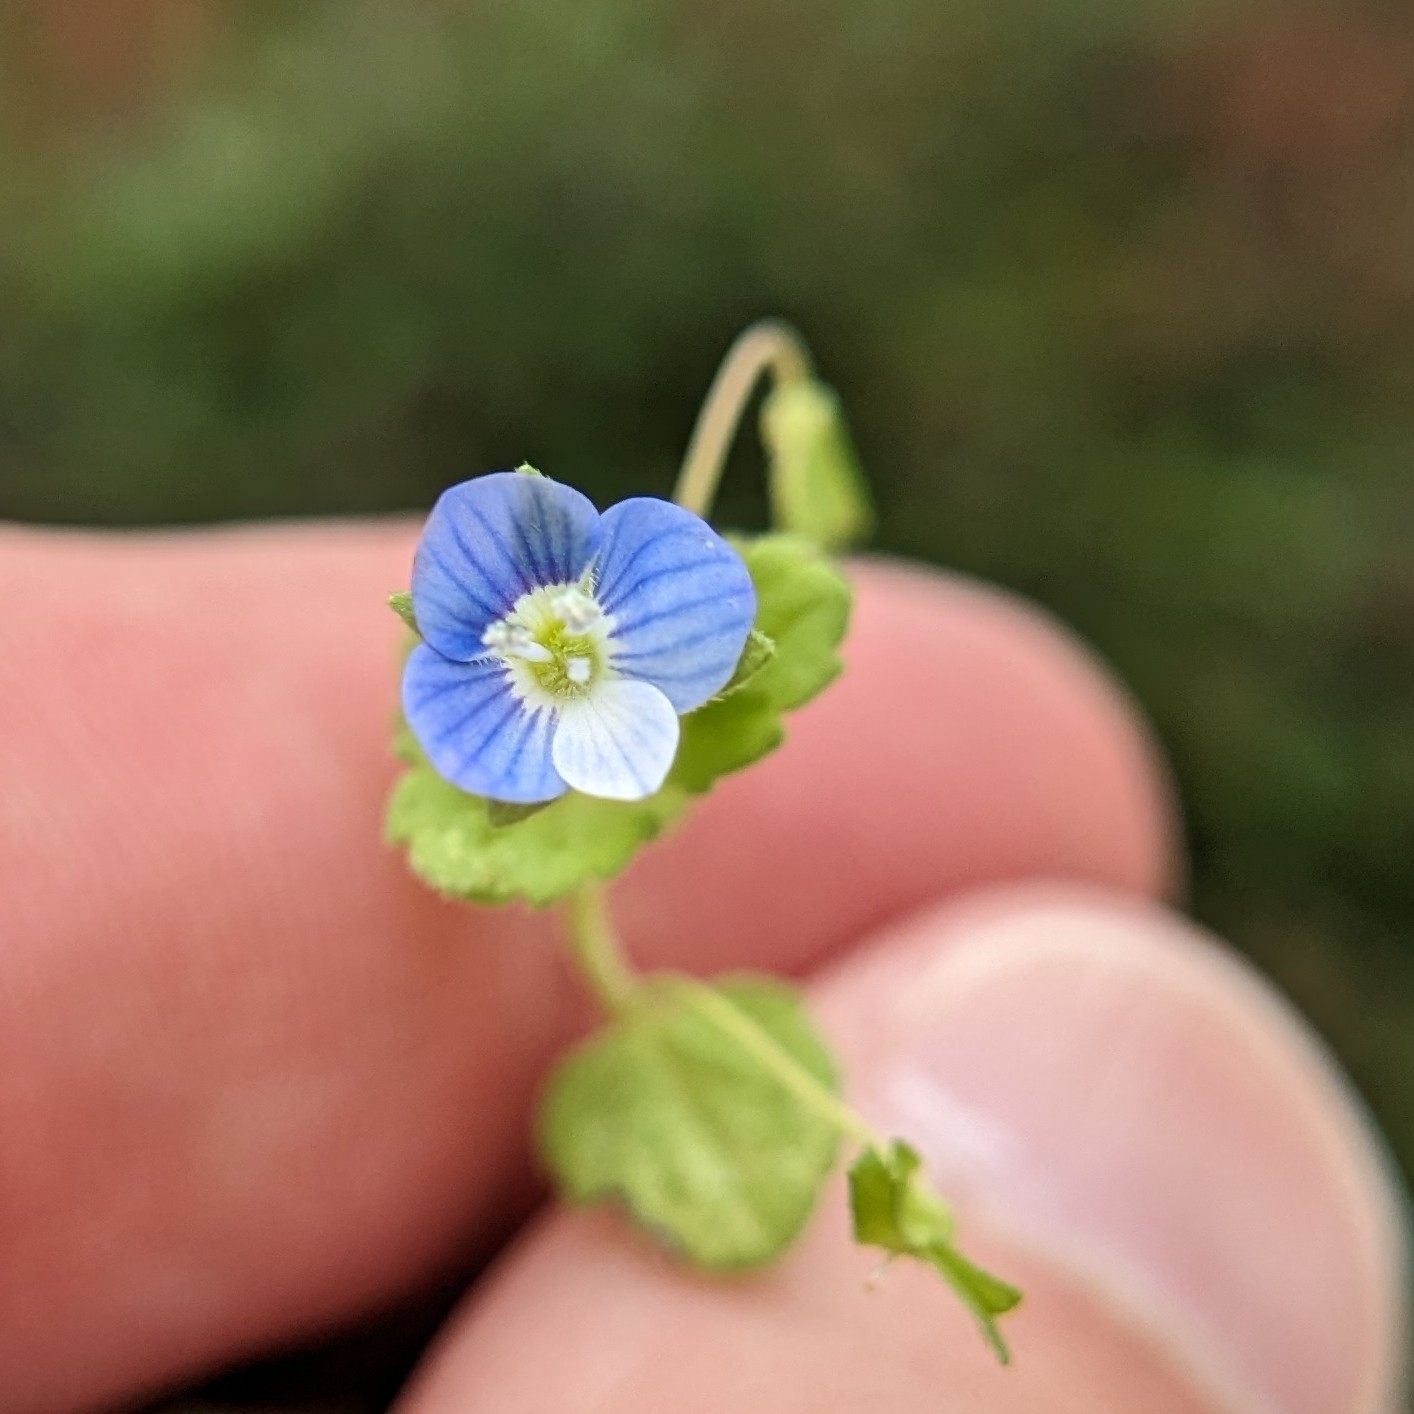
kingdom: Plantae
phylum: Tracheophyta
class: Magnoliopsida
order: Lamiales
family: Plantaginaceae
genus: Veronica
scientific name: Veronica persica
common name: Common field-speedwell
